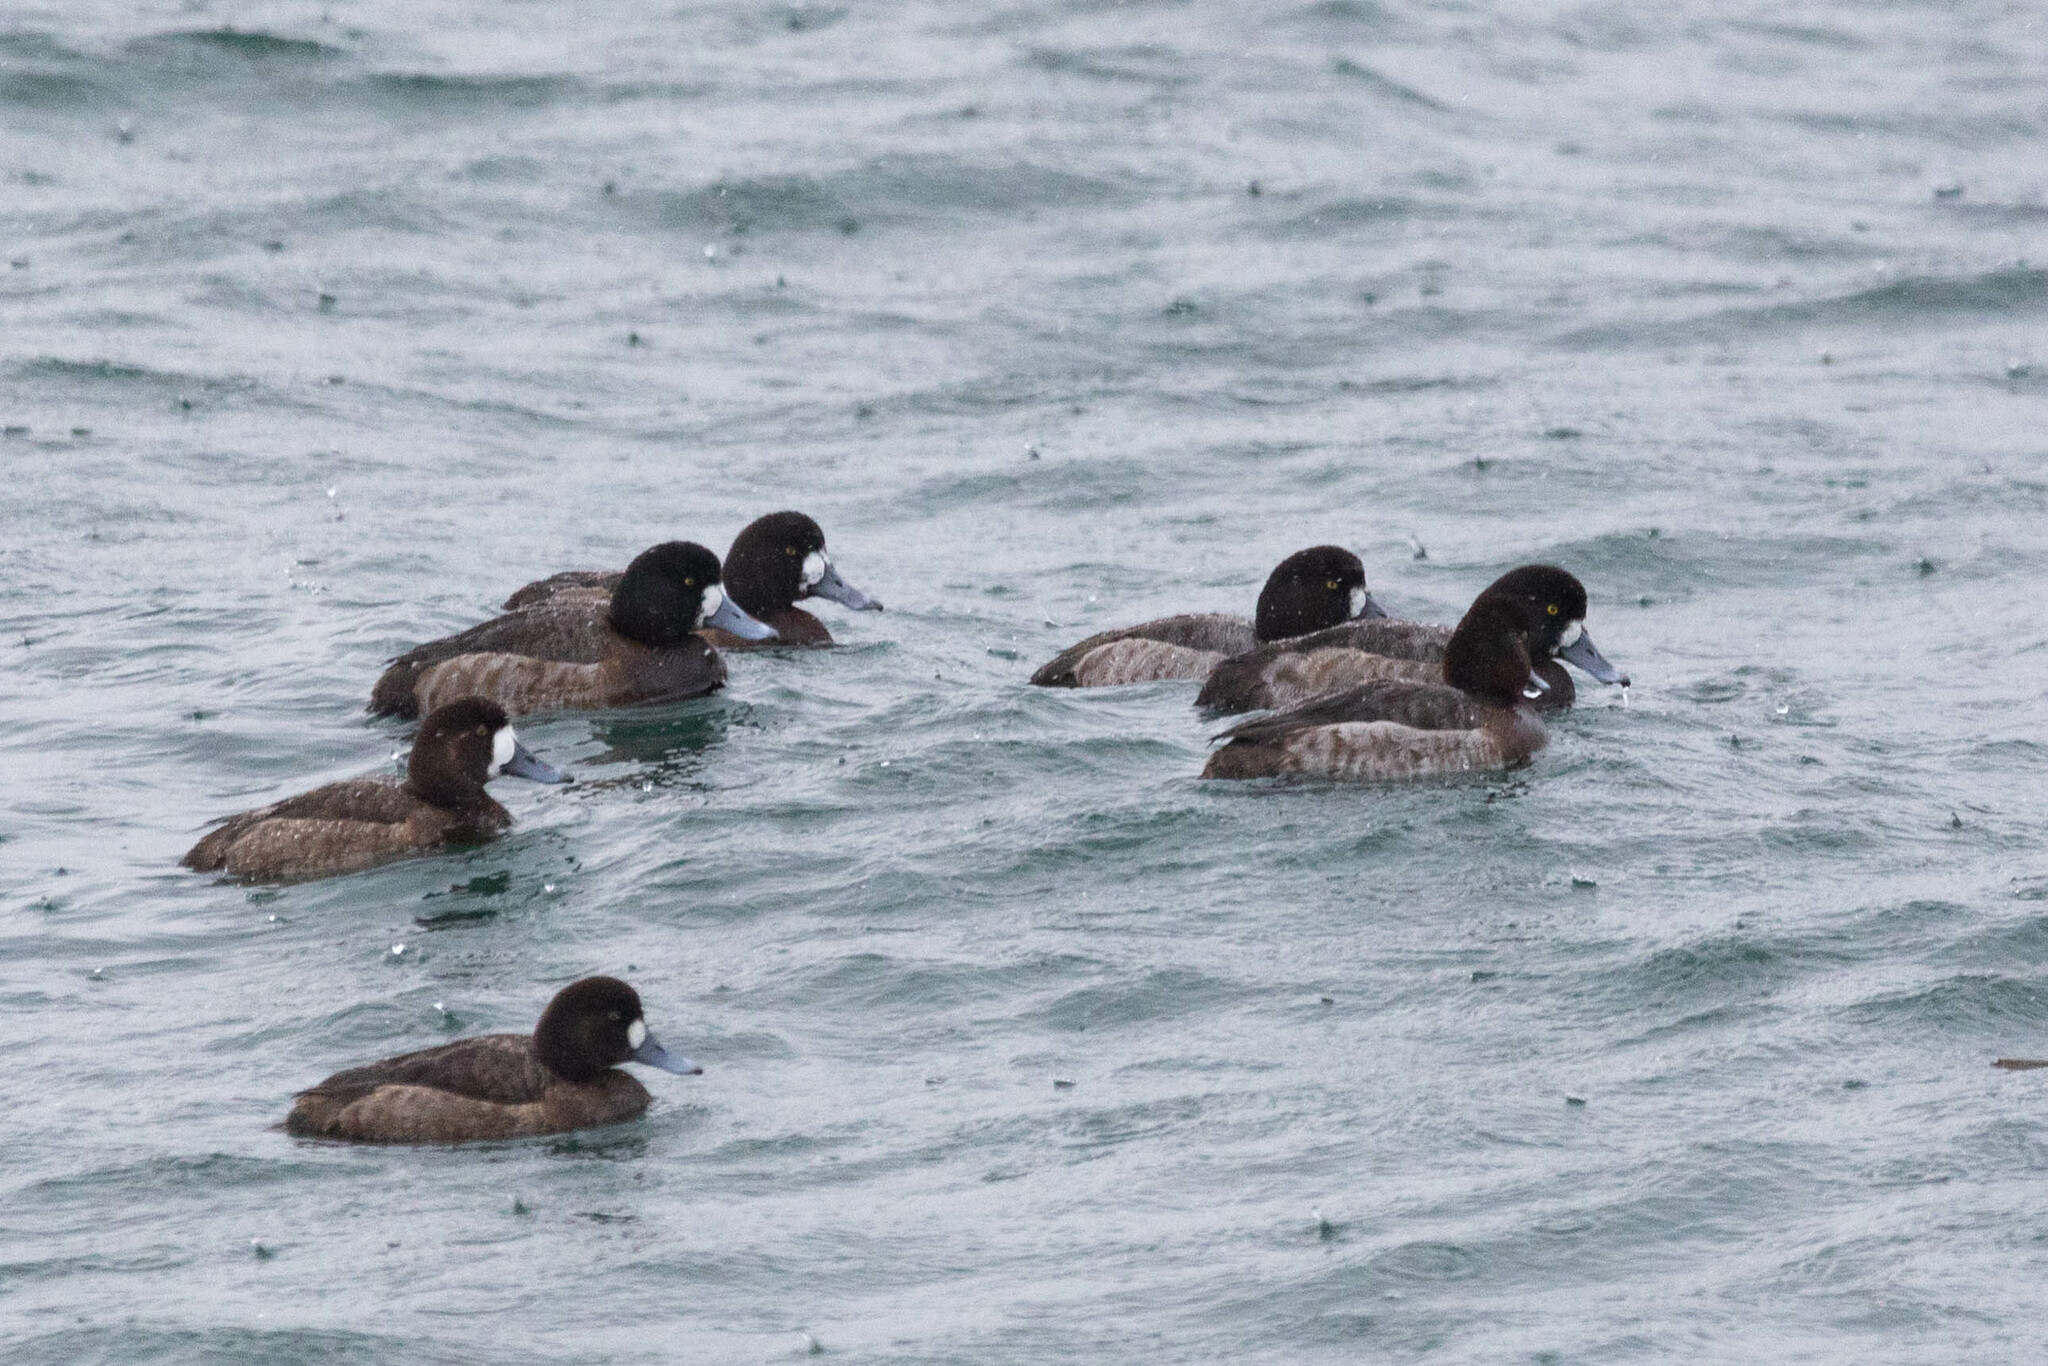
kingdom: Animalia
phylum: Chordata
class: Aves
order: Anseriformes
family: Anatidae
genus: Aythya
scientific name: Aythya marila
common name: Greater scaup
